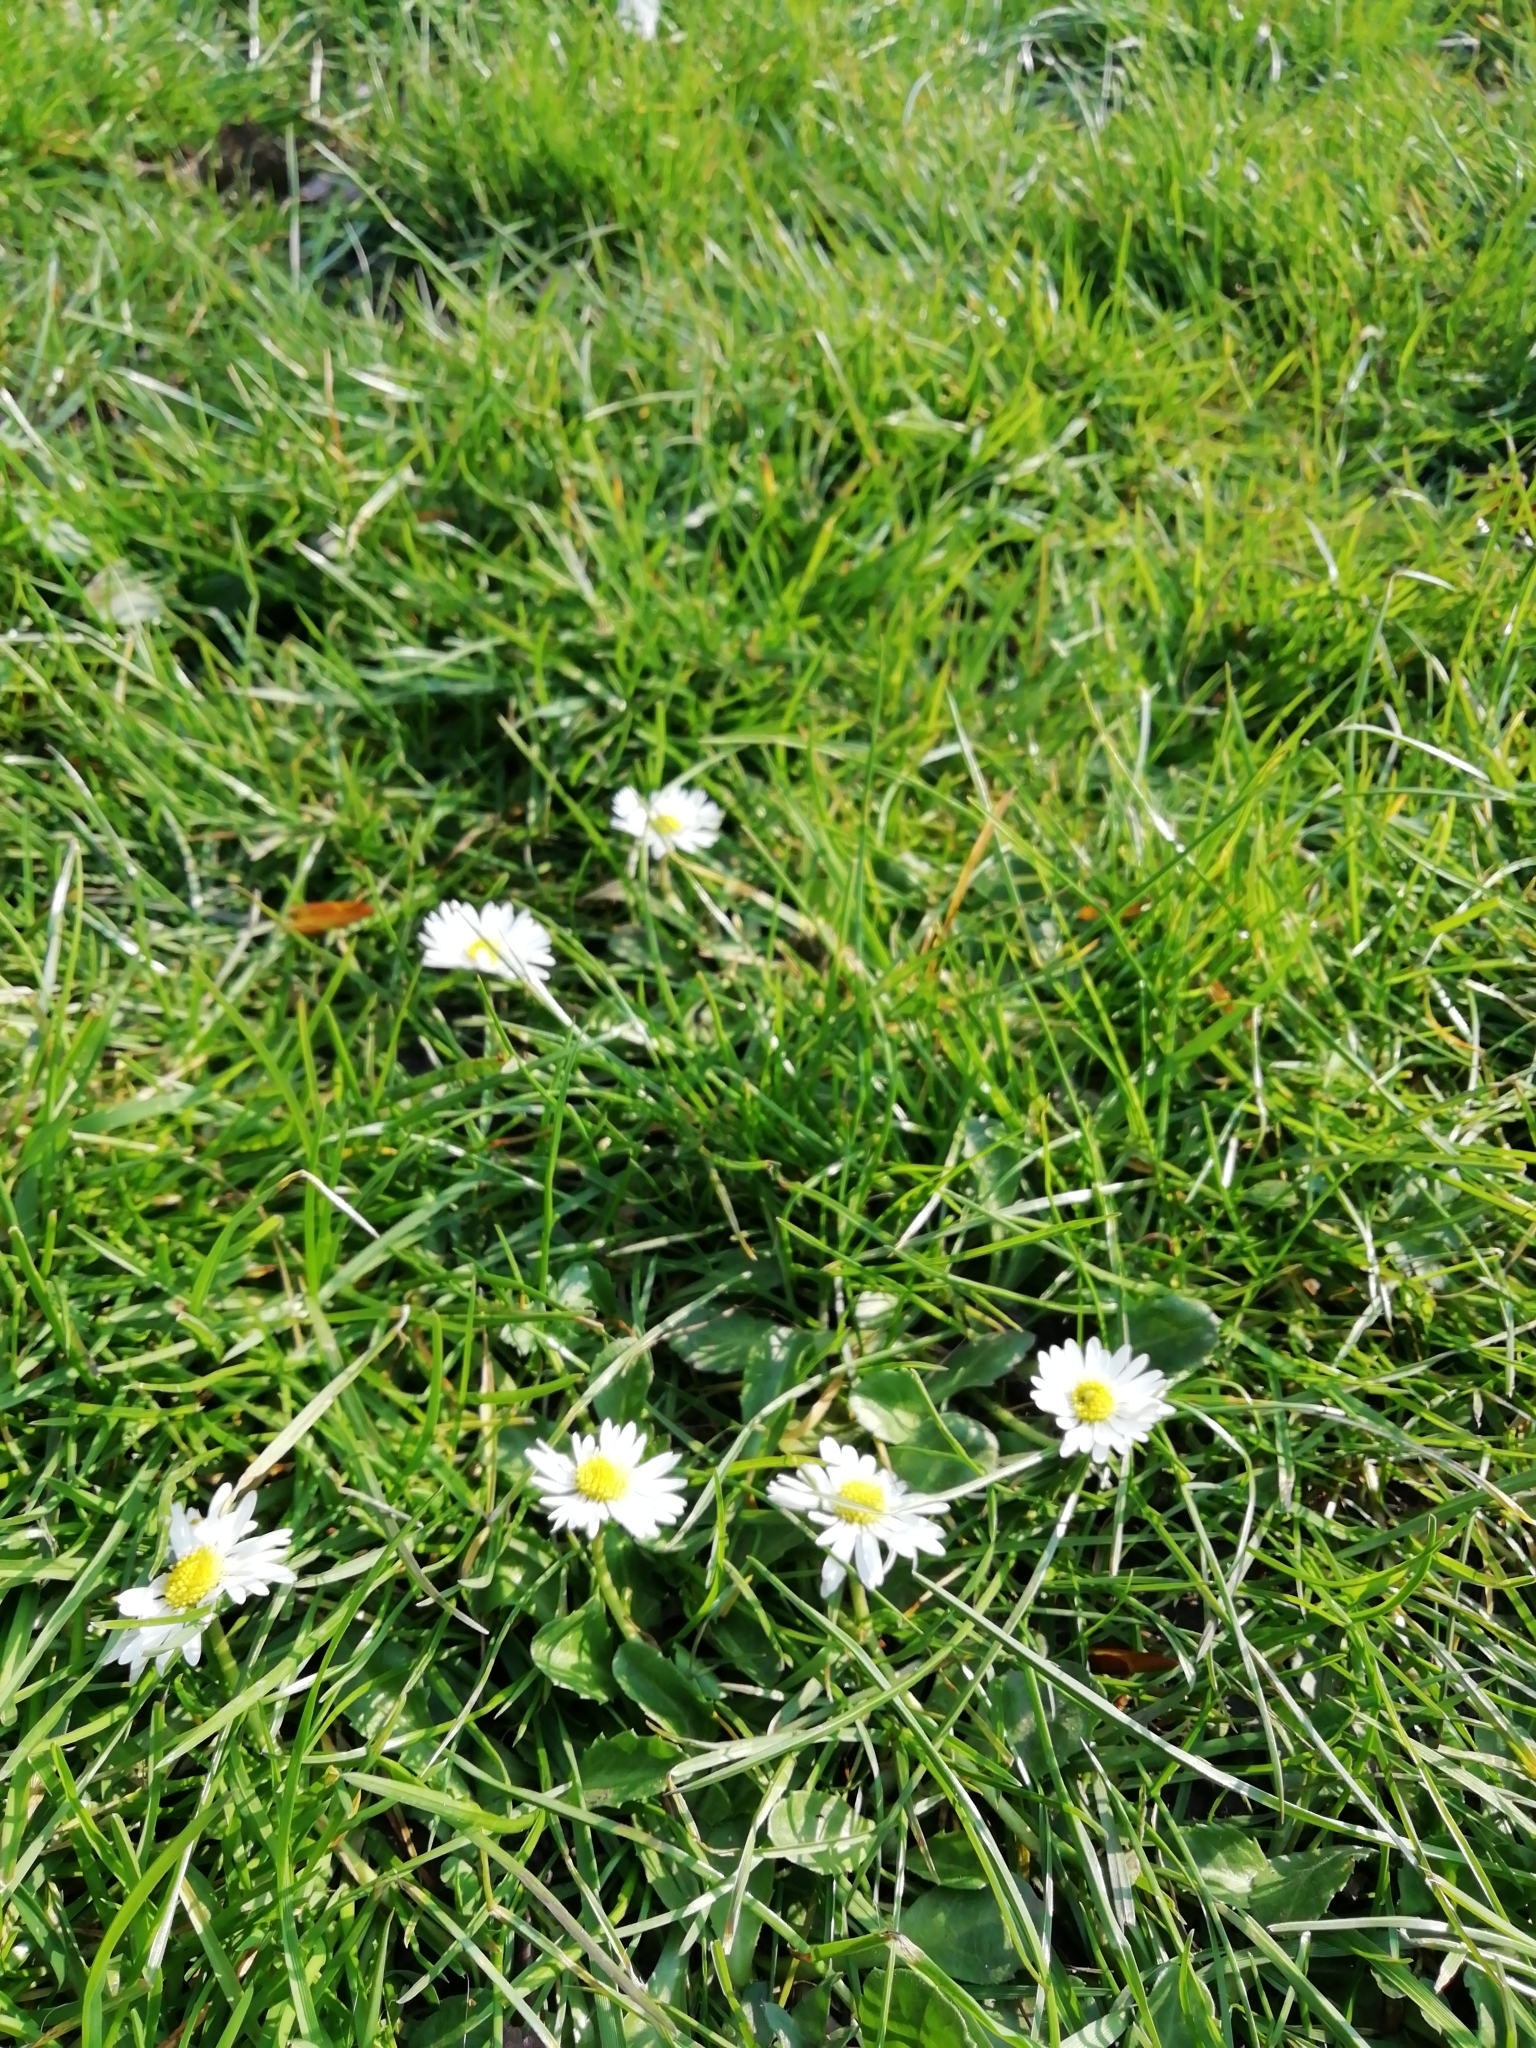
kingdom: Plantae
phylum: Tracheophyta
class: Magnoliopsida
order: Asterales
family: Asteraceae
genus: Bellis
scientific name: Bellis perennis
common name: Lawndaisy
